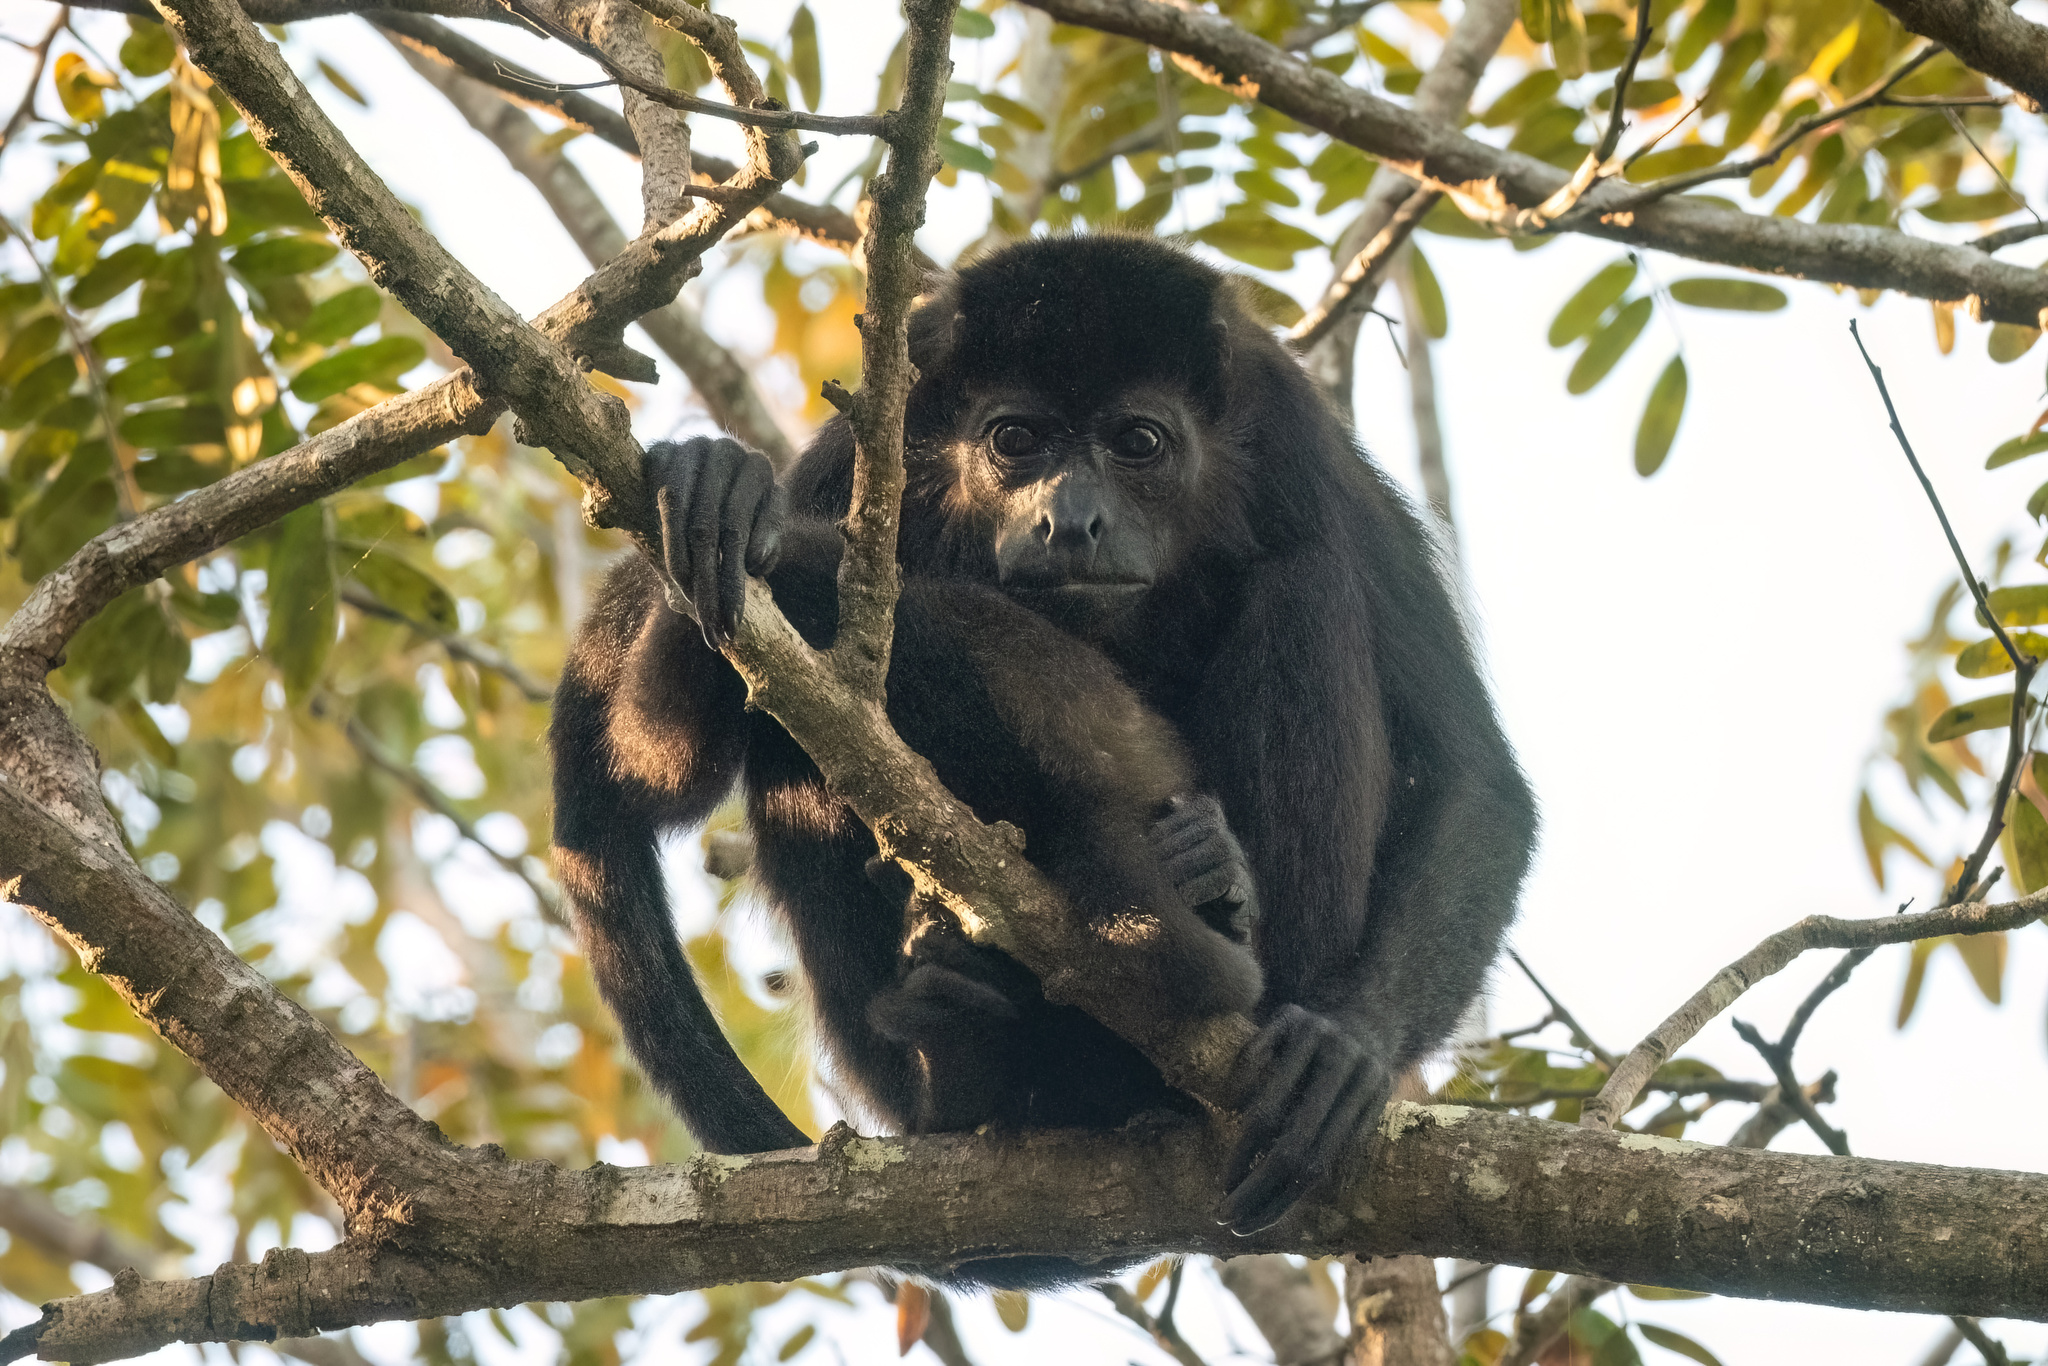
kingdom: Animalia
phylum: Chordata
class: Mammalia
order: Primates
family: Atelidae
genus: Alouatta
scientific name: Alouatta palliata
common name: Mantled howler
